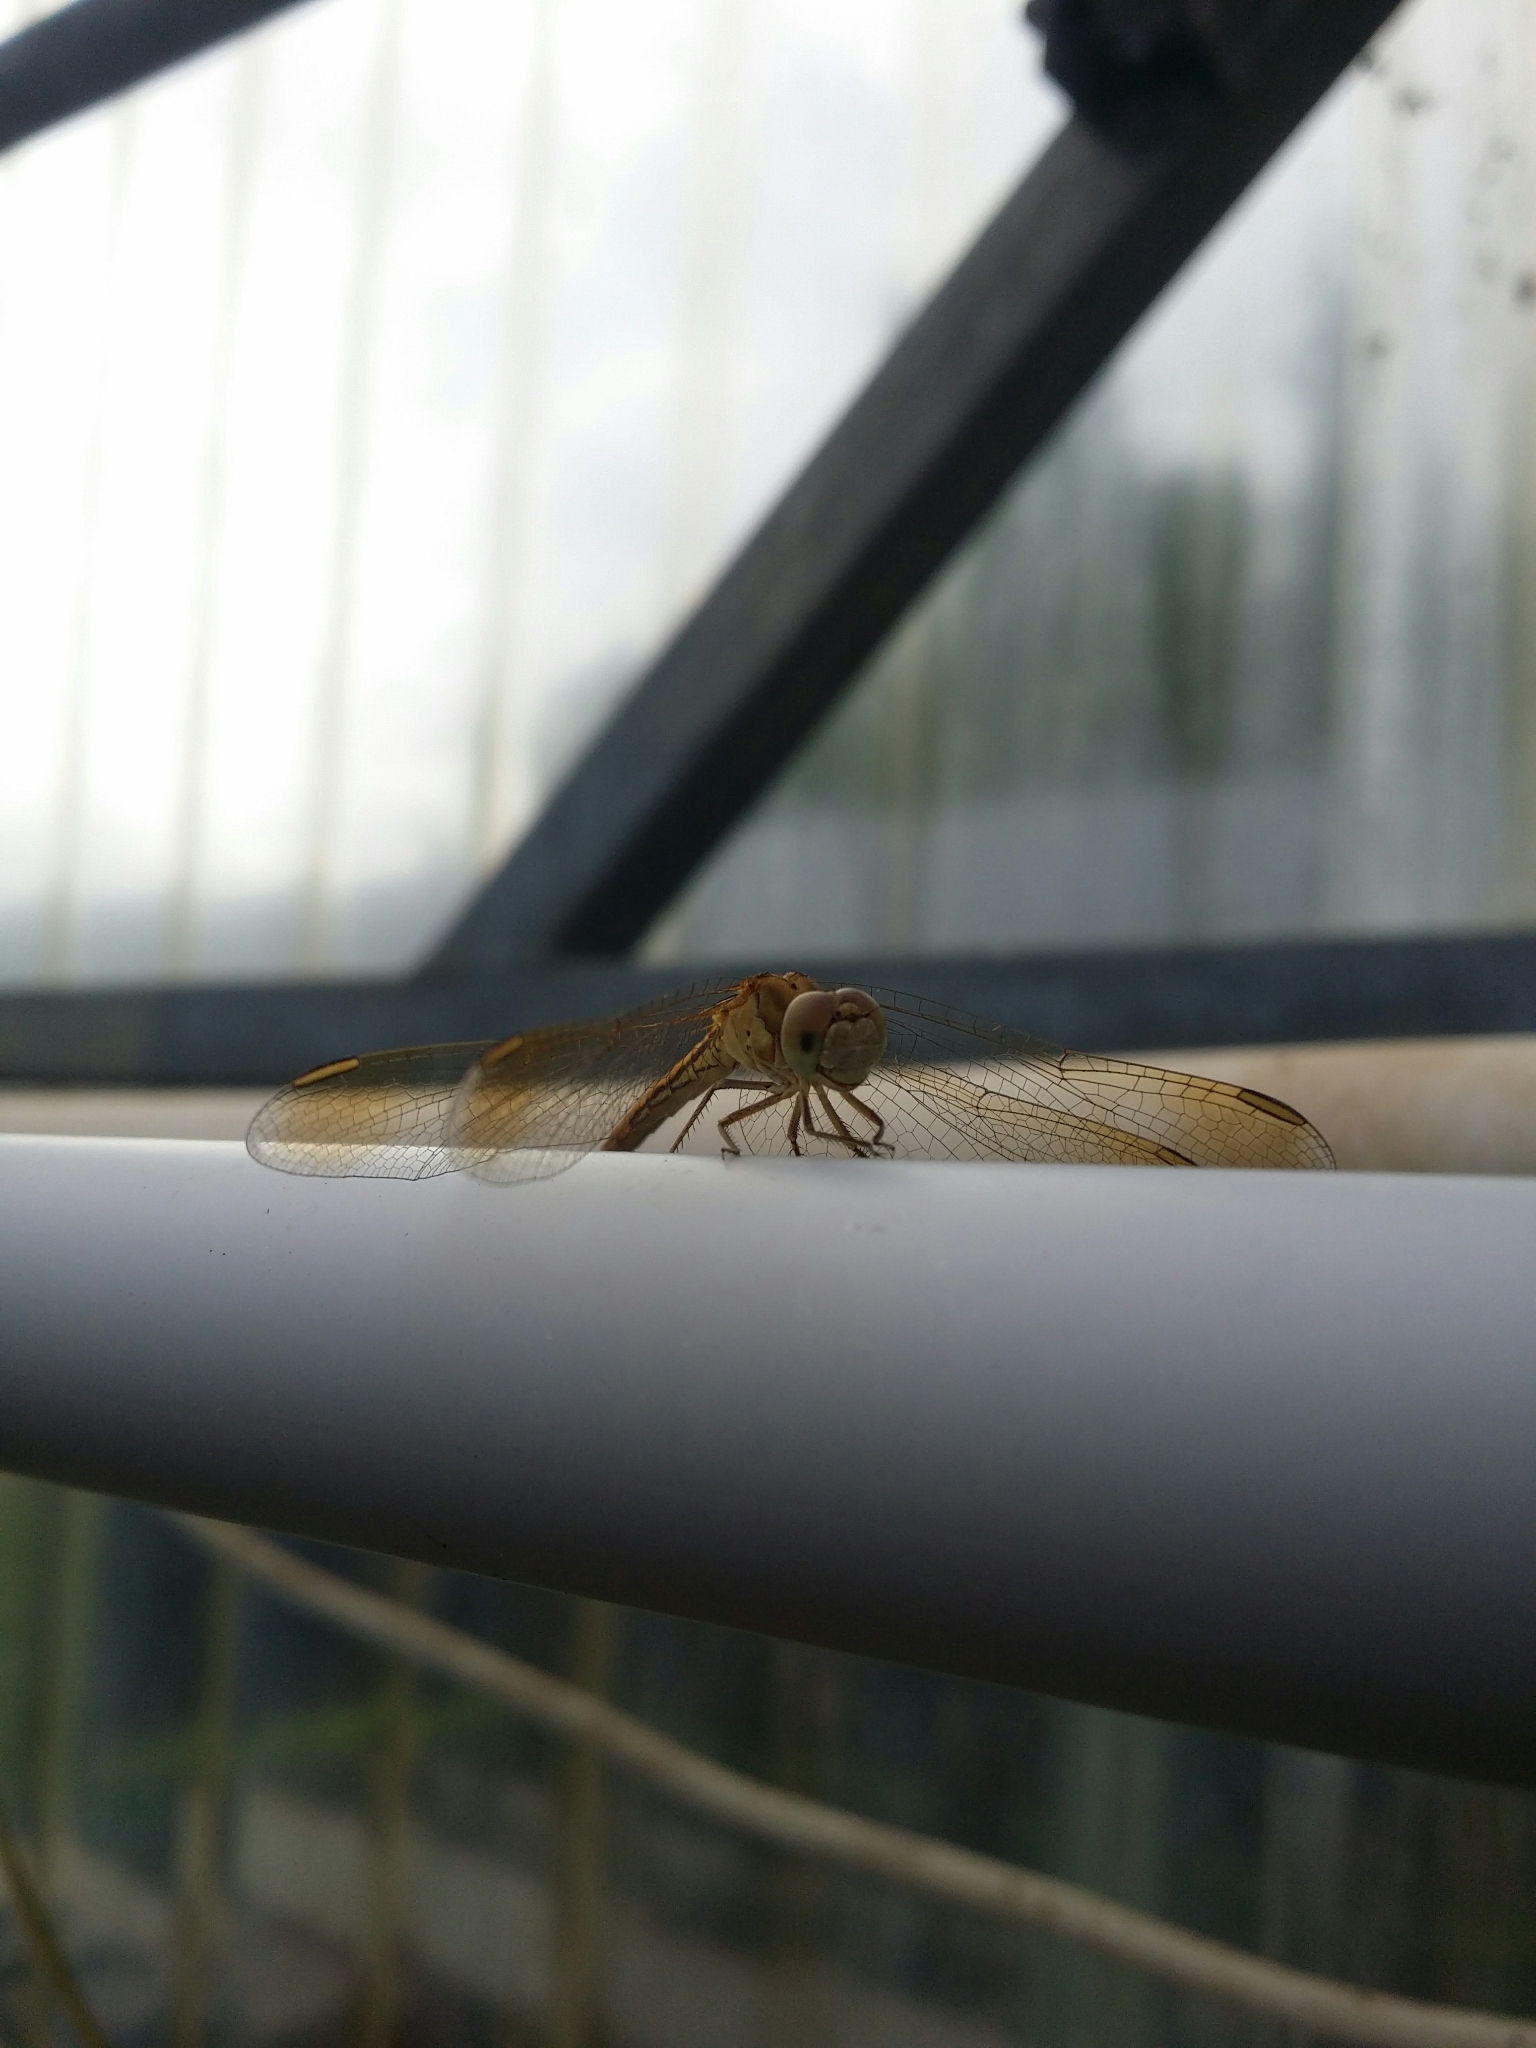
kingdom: Animalia
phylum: Arthropoda
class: Insecta
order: Odonata
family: Libellulidae
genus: Diplacodes
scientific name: Diplacodes haematodes
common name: Scarlet percher
